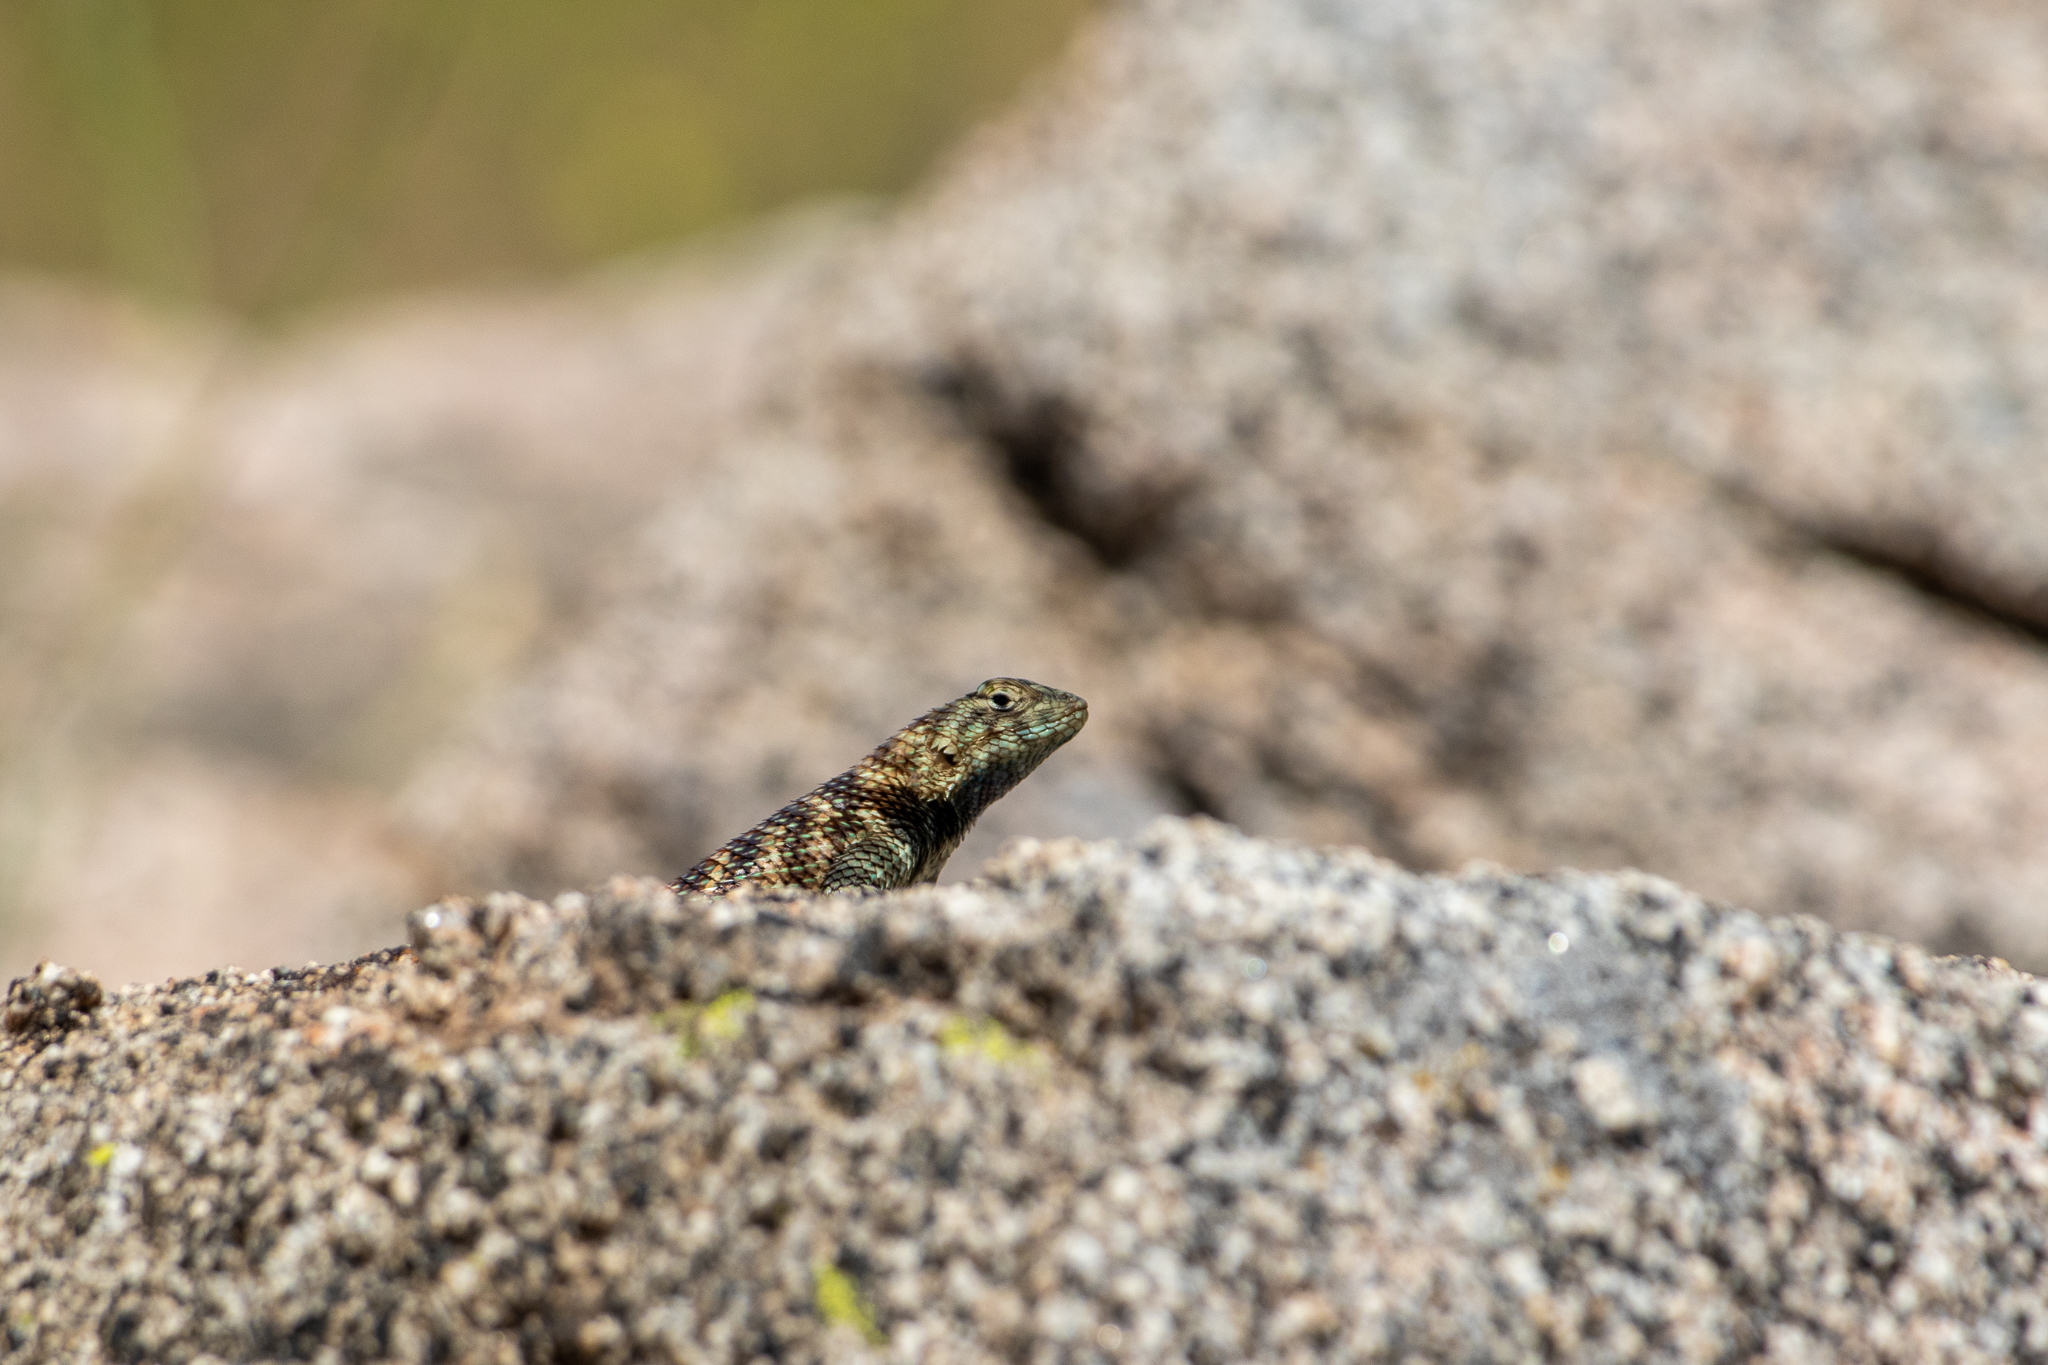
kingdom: Animalia
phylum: Chordata
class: Squamata
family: Phrynosomatidae
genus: Sceloporus
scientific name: Sceloporus orcutti
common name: Granite spiny lizard
